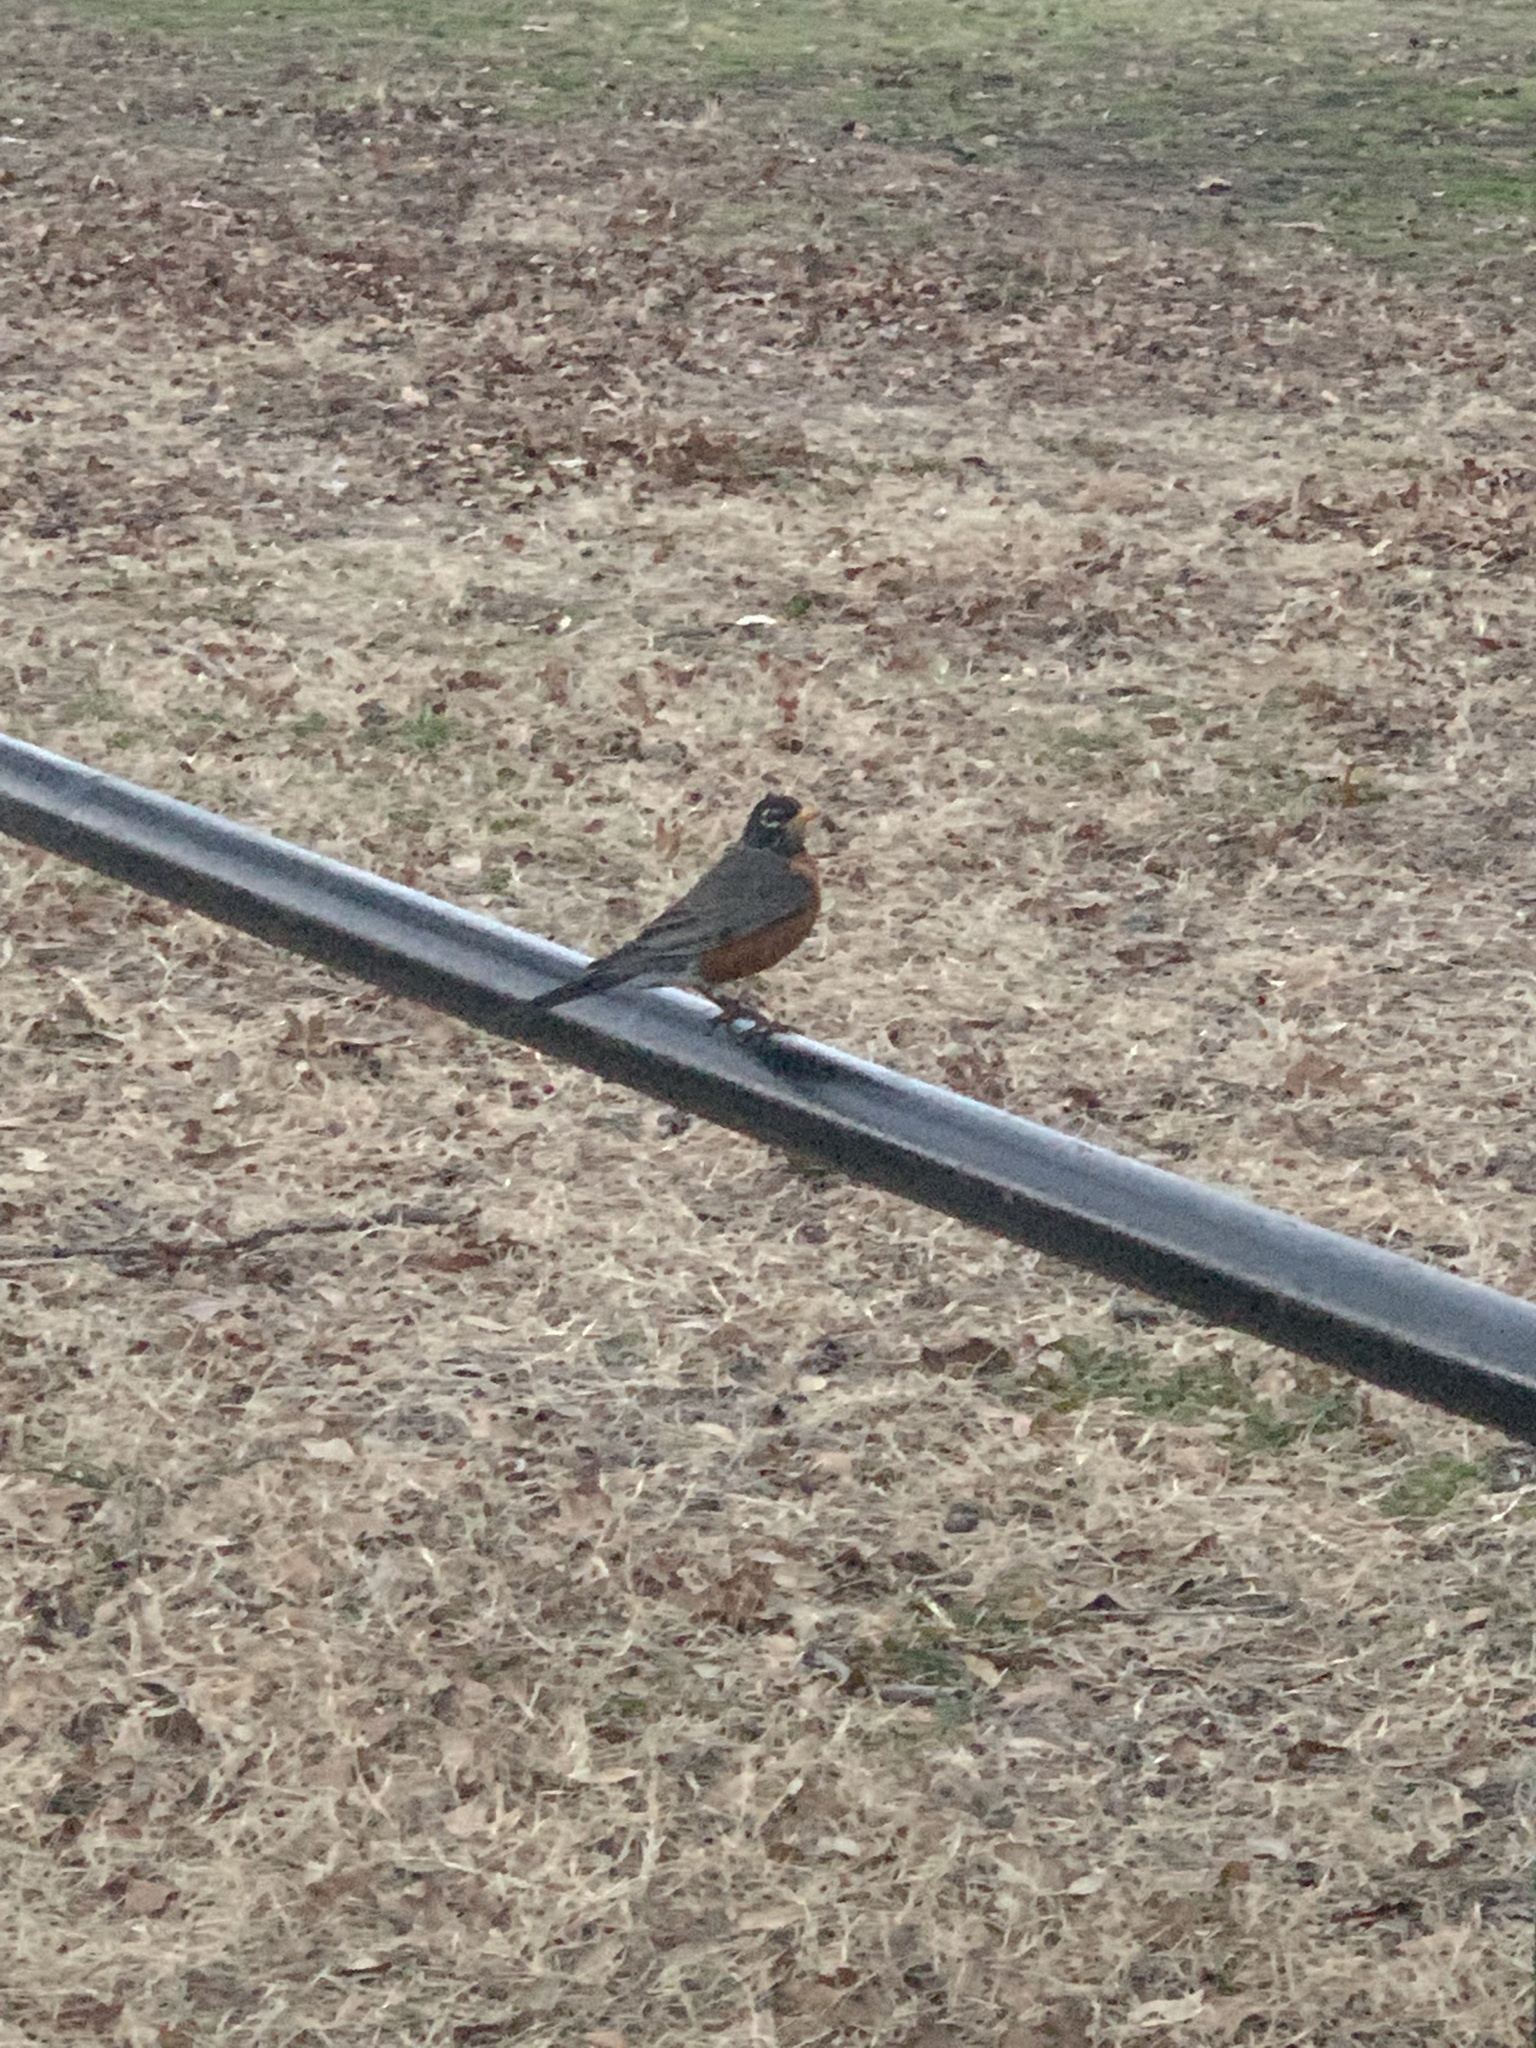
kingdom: Animalia
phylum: Chordata
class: Aves
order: Passeriformes
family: Turdidae
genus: Turdus
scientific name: Turdus migratorius
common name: American robin
